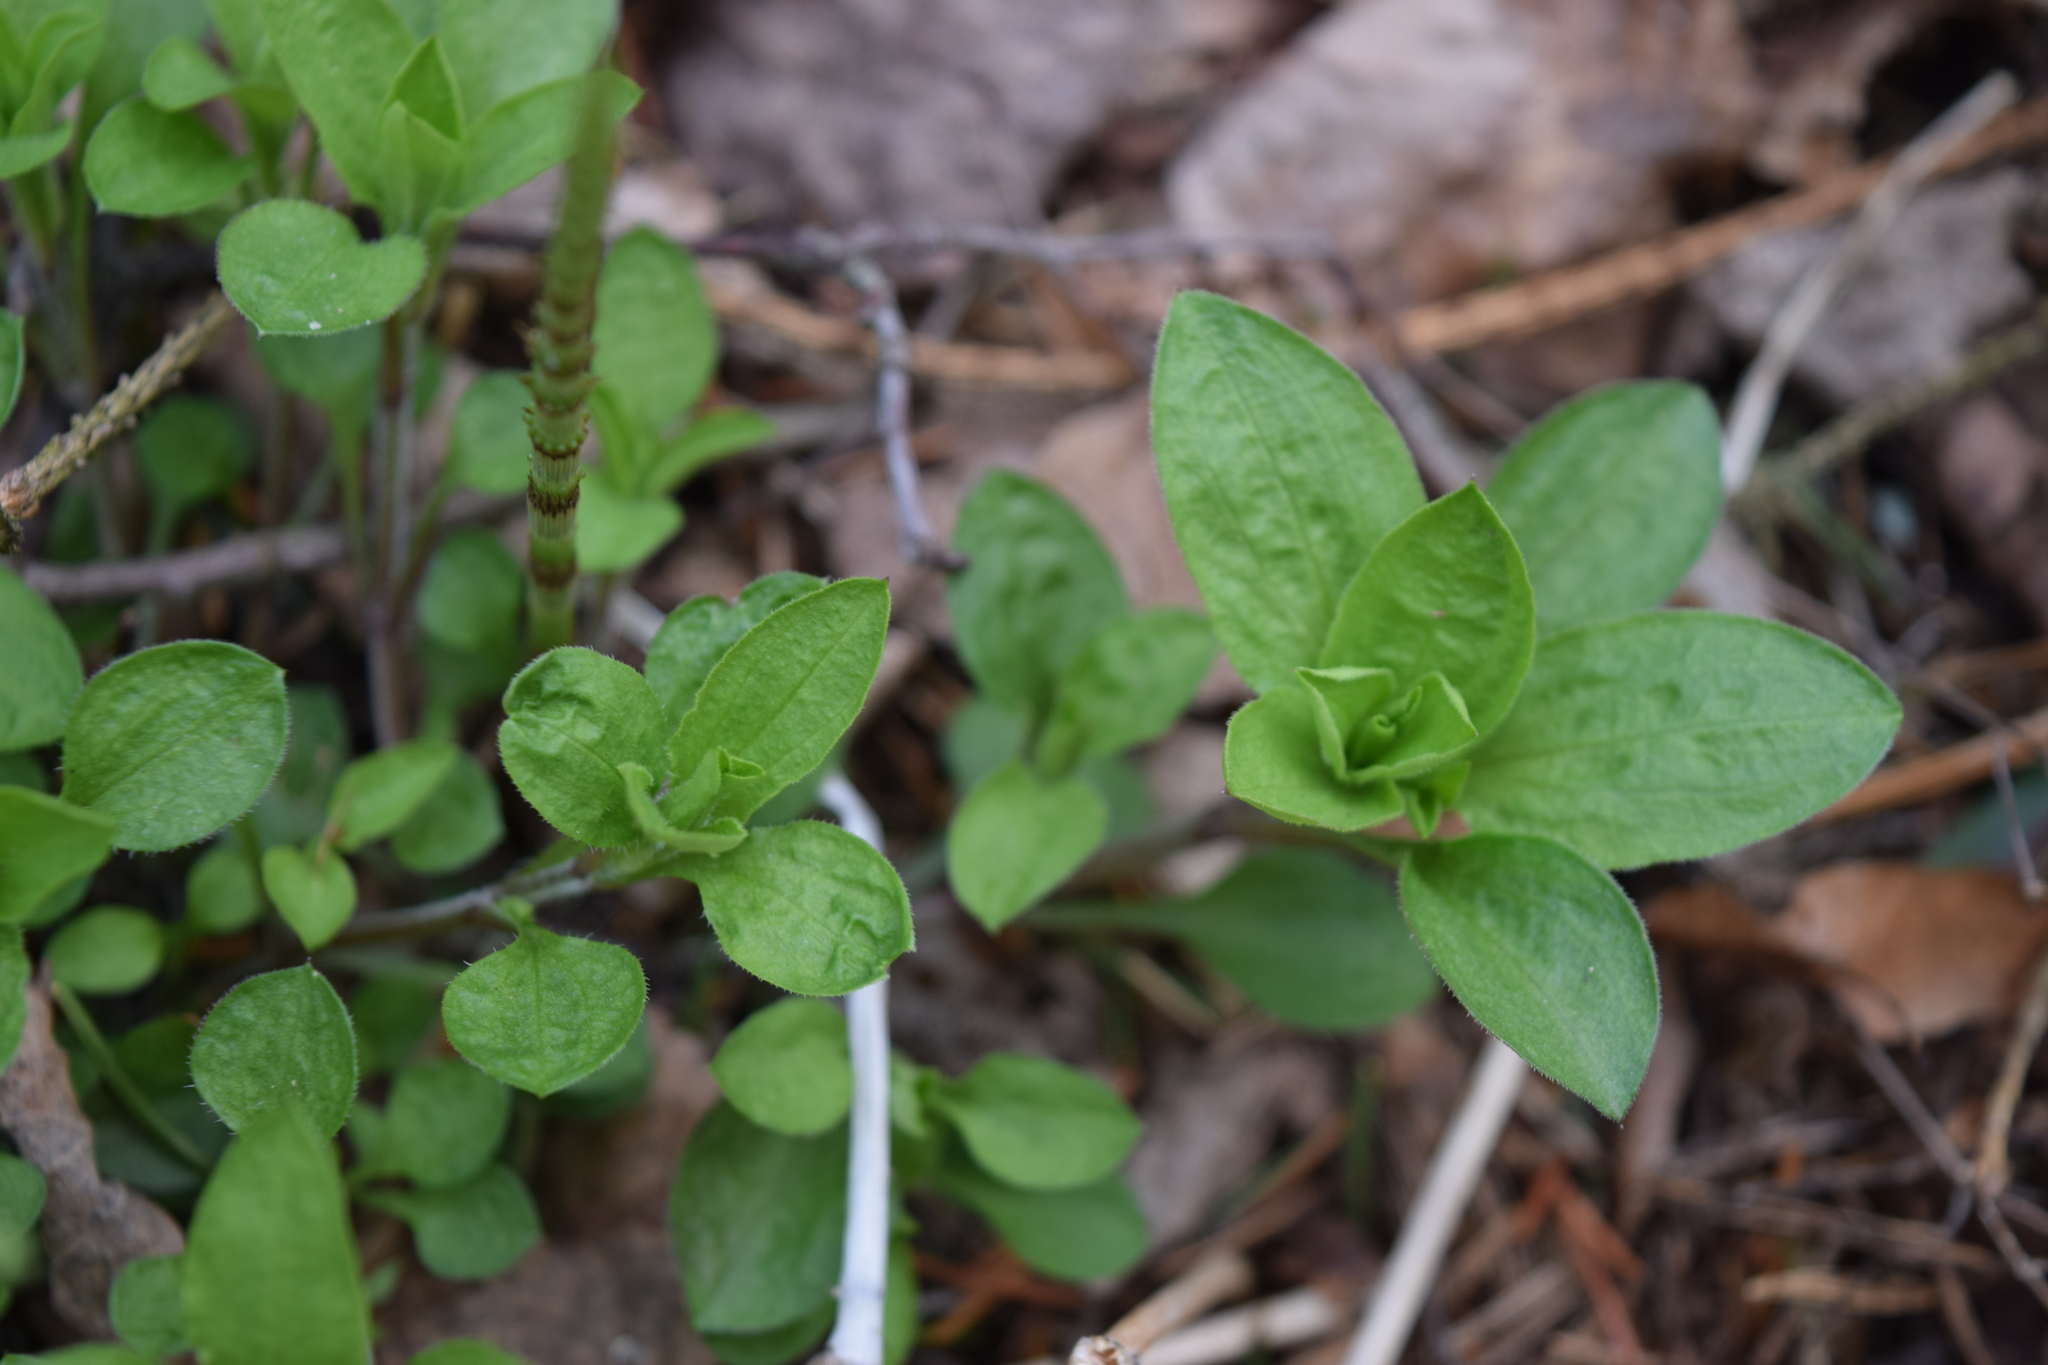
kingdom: Plantae
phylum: Tracheophyta
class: Magnoliopsida
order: Caryophyllales
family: Caryophyllaceae
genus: Moehringia
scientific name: Moehringia trinervia
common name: Three-nerved sandwort
